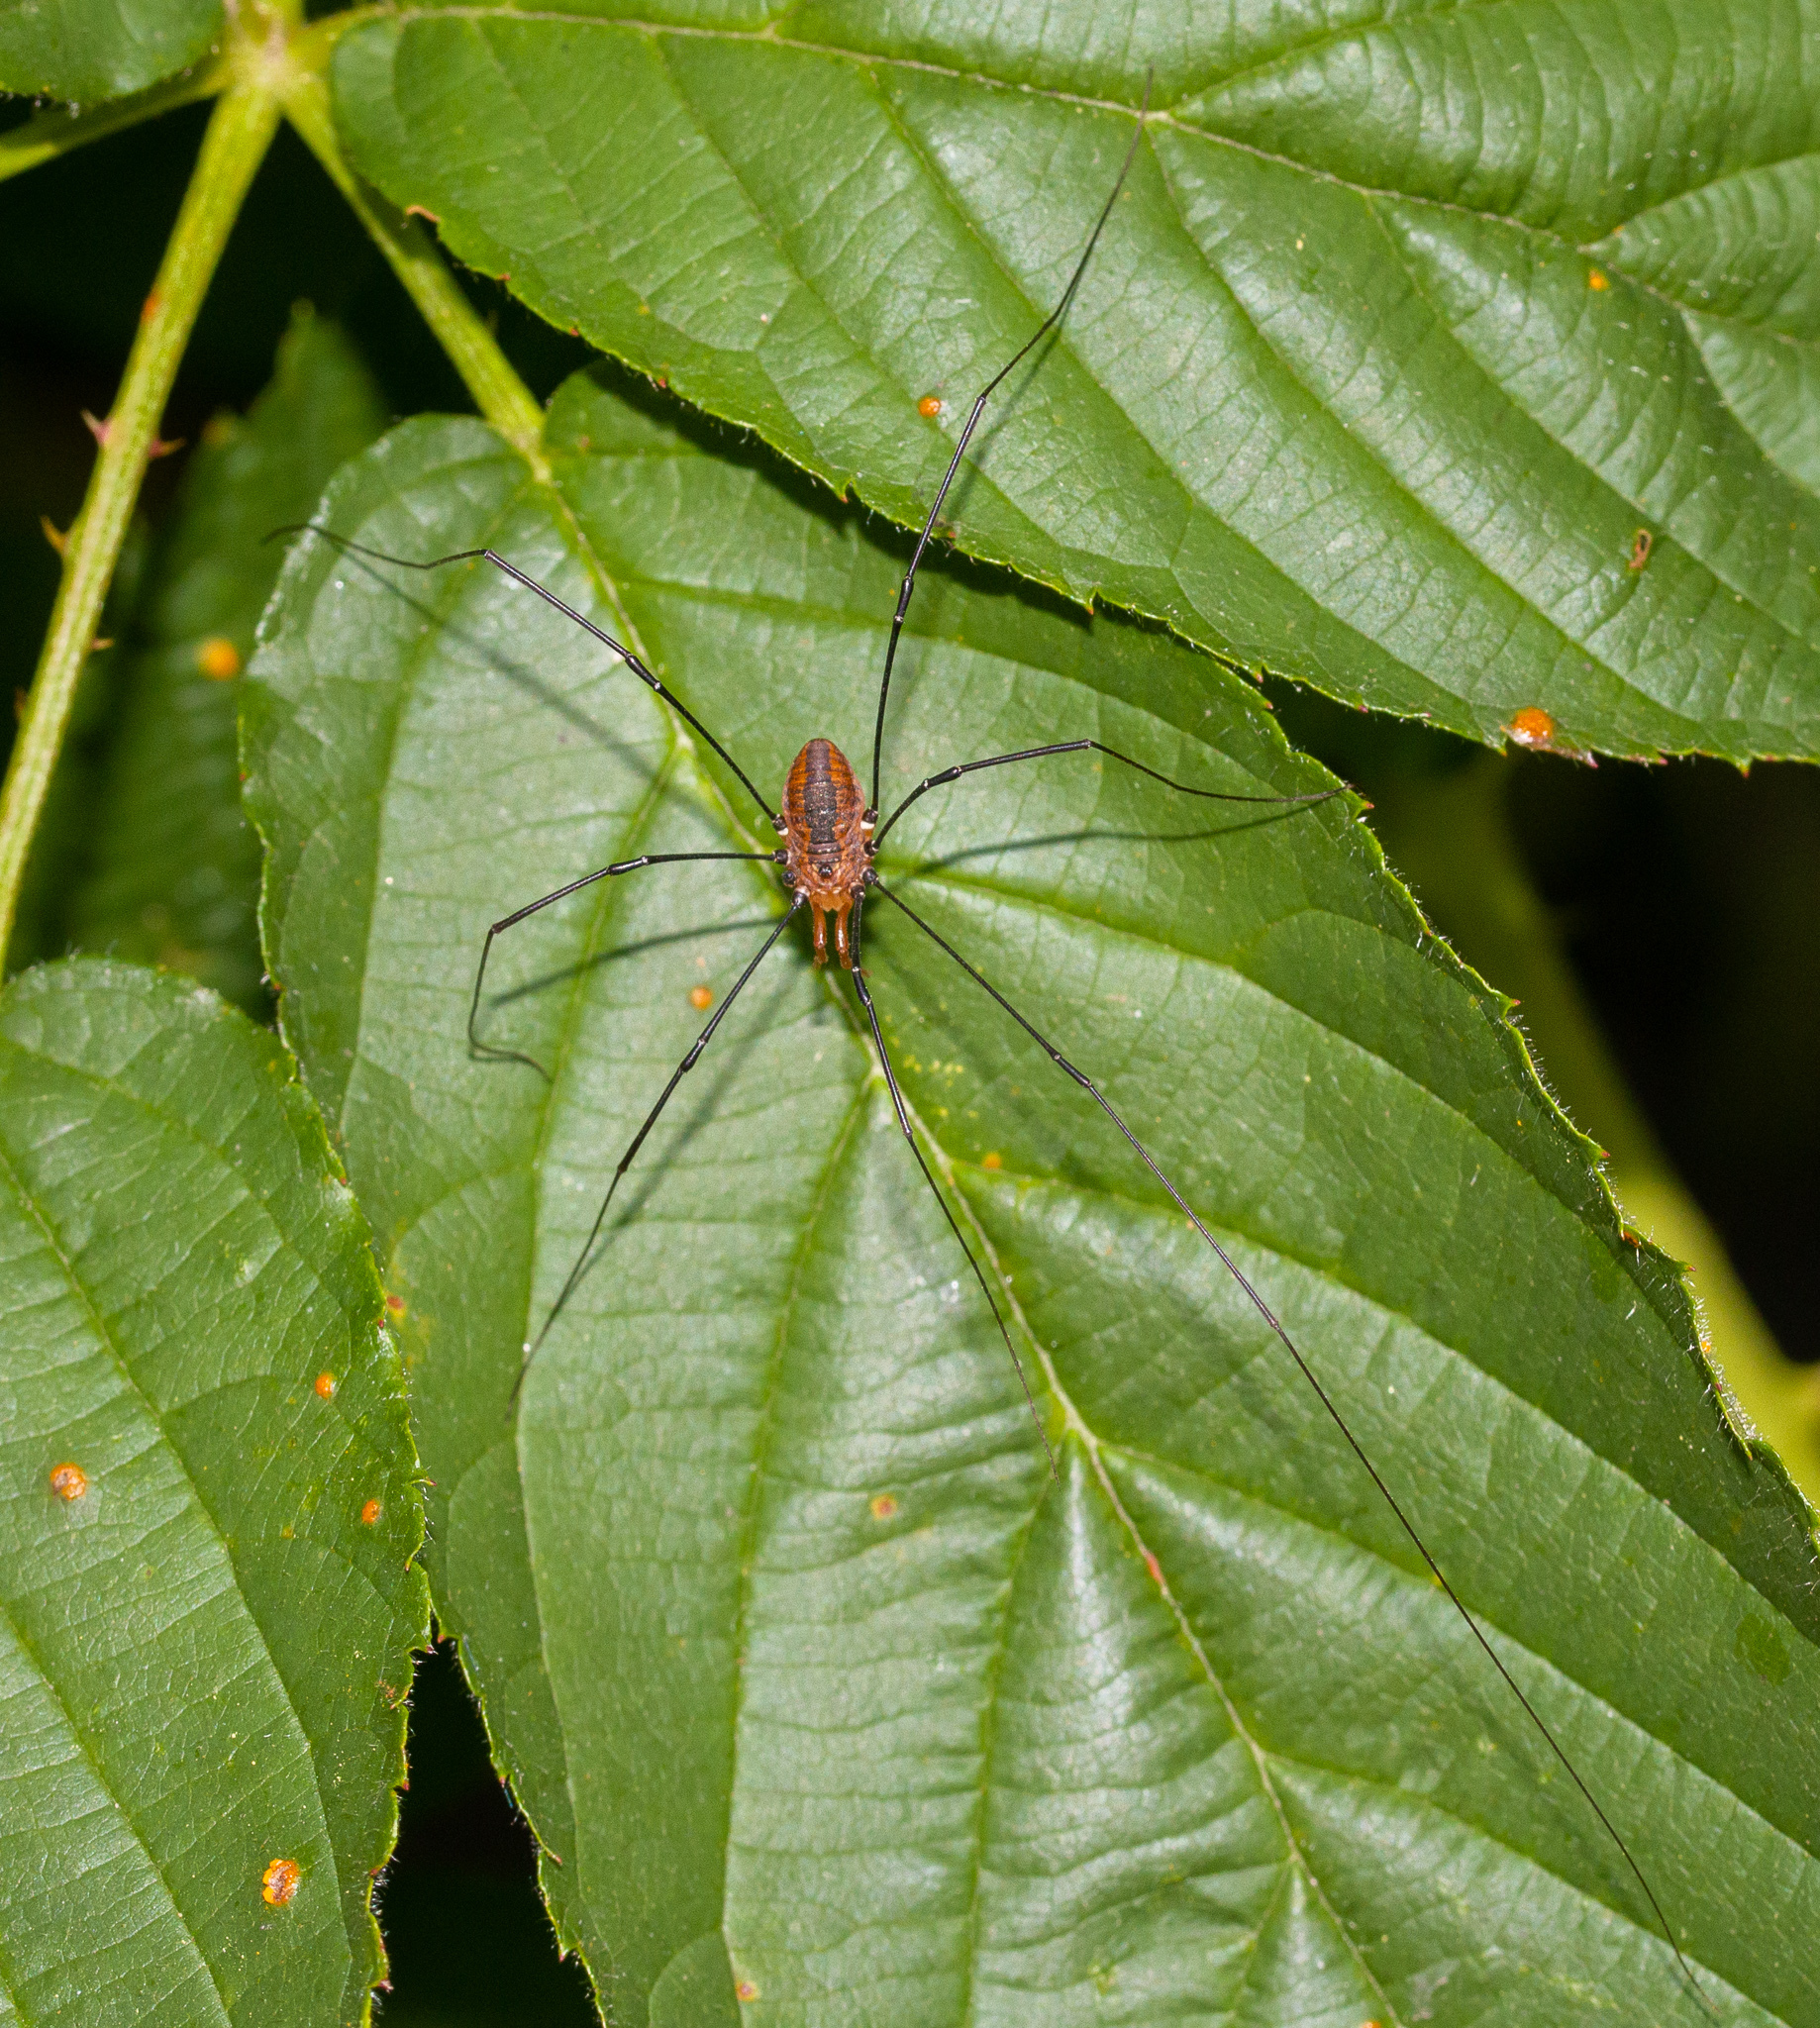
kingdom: Animalia
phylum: Arthropoda
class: Arachnida
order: Opiliones
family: Sclerosomatidae
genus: Leiobunum
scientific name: Leiobunum vittatum
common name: Eastern harvestman
